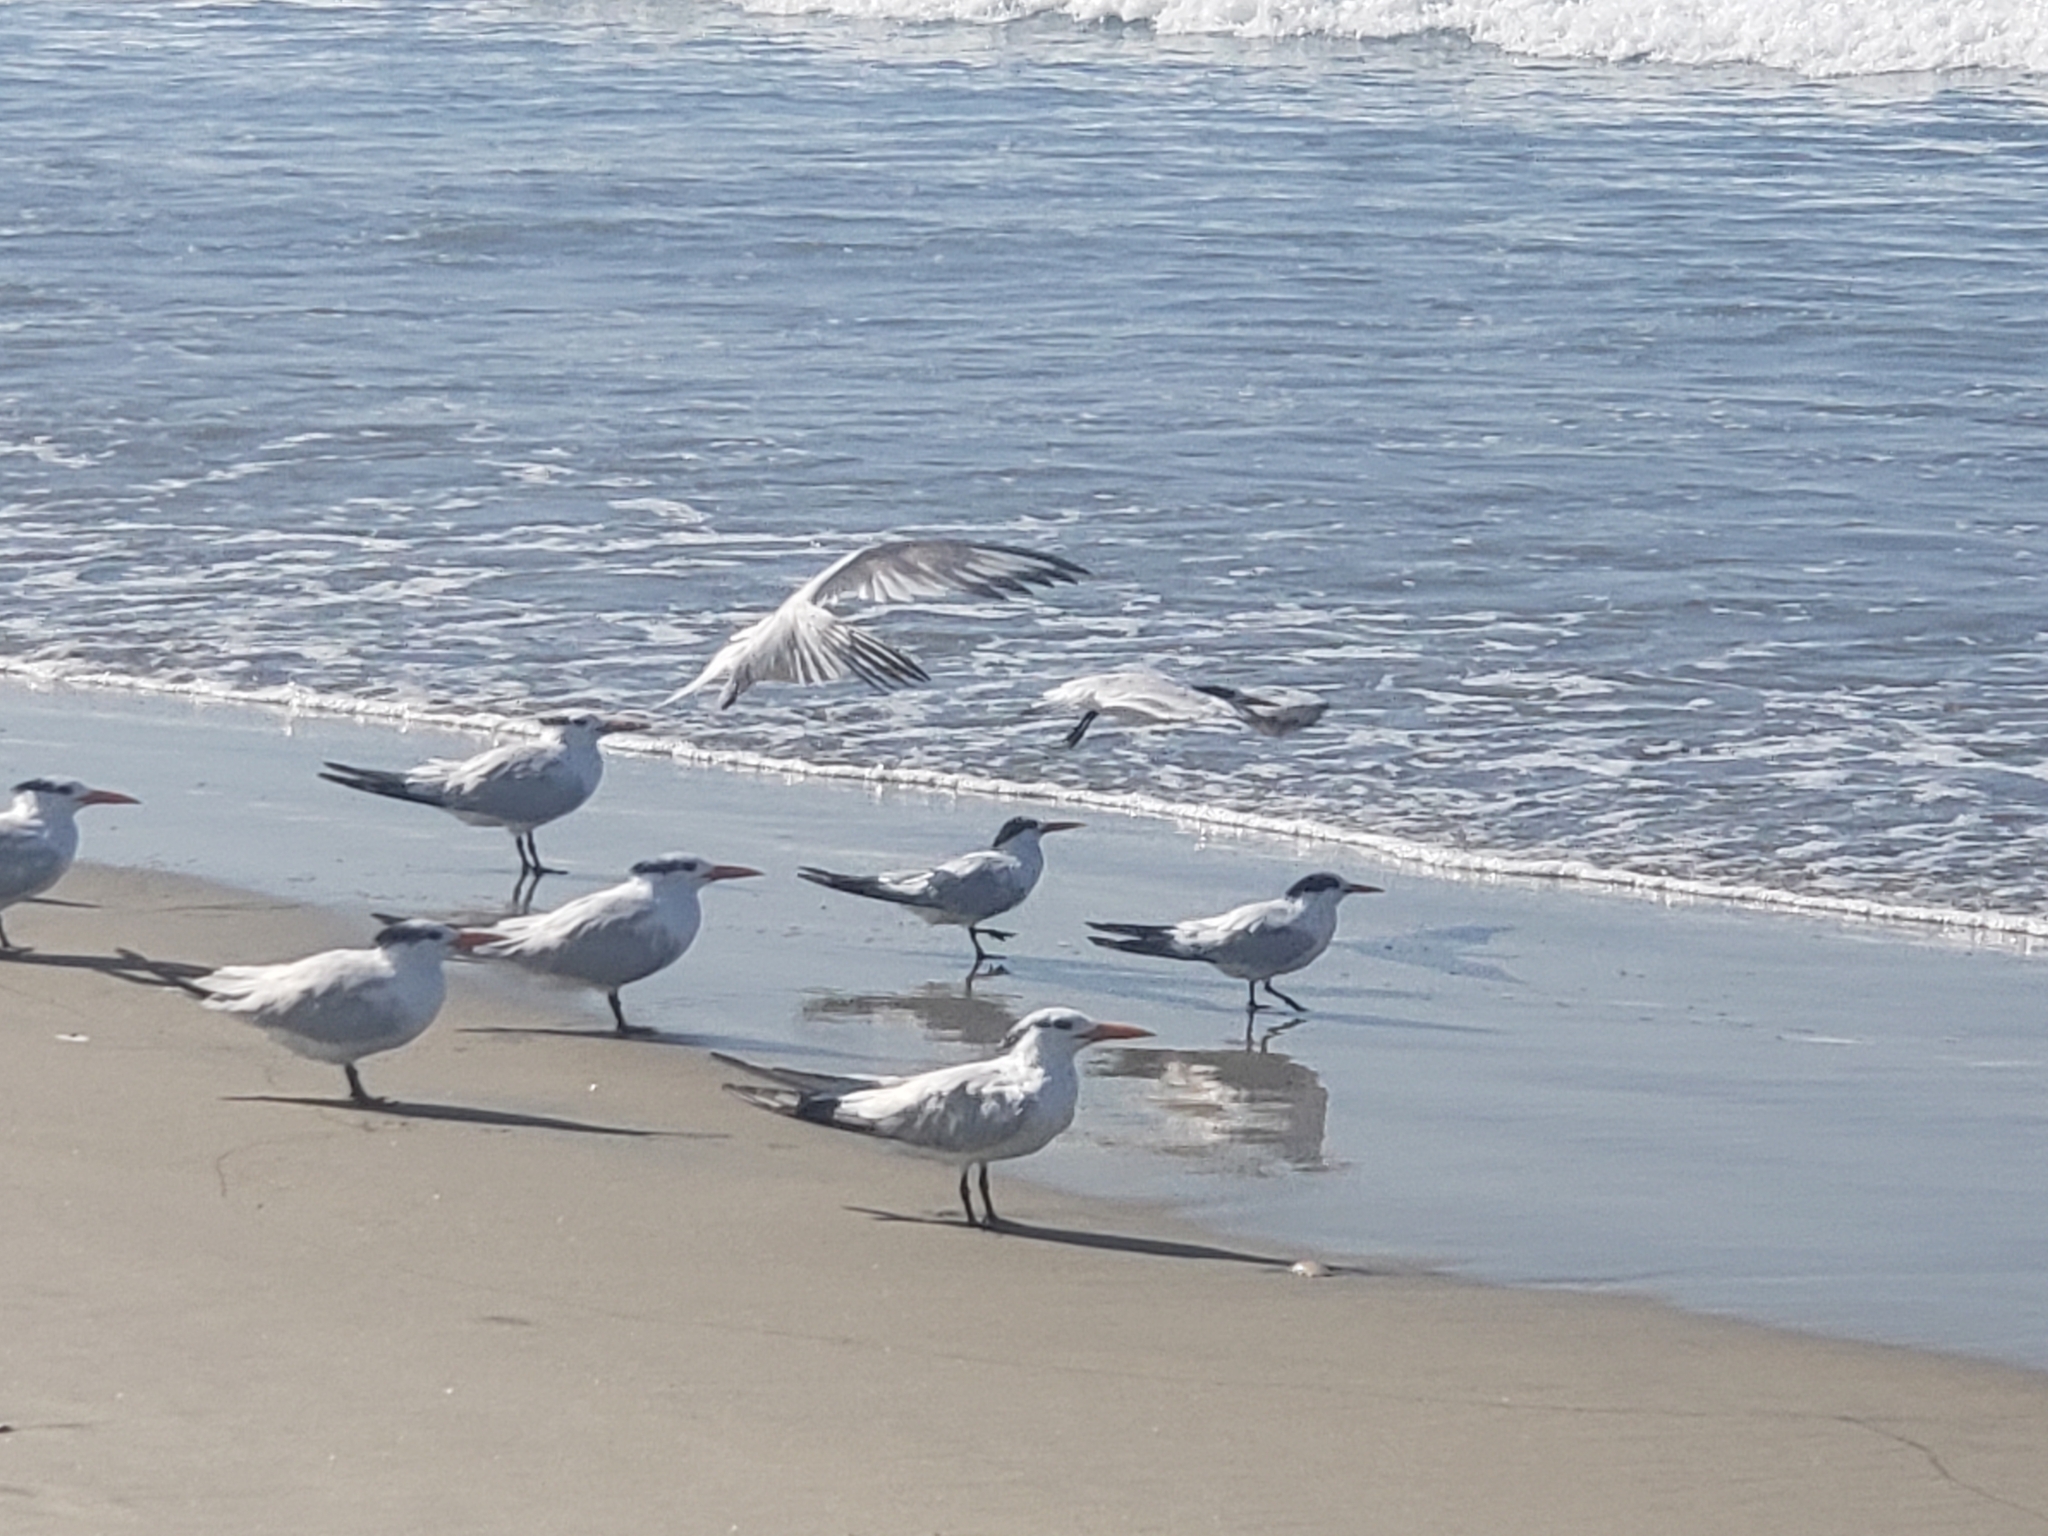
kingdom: Animalia
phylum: Chordata
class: Aves
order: Charadriiformes
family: Laridae
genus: Thalasseus
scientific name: Thalasseus maximus
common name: Royal tern
